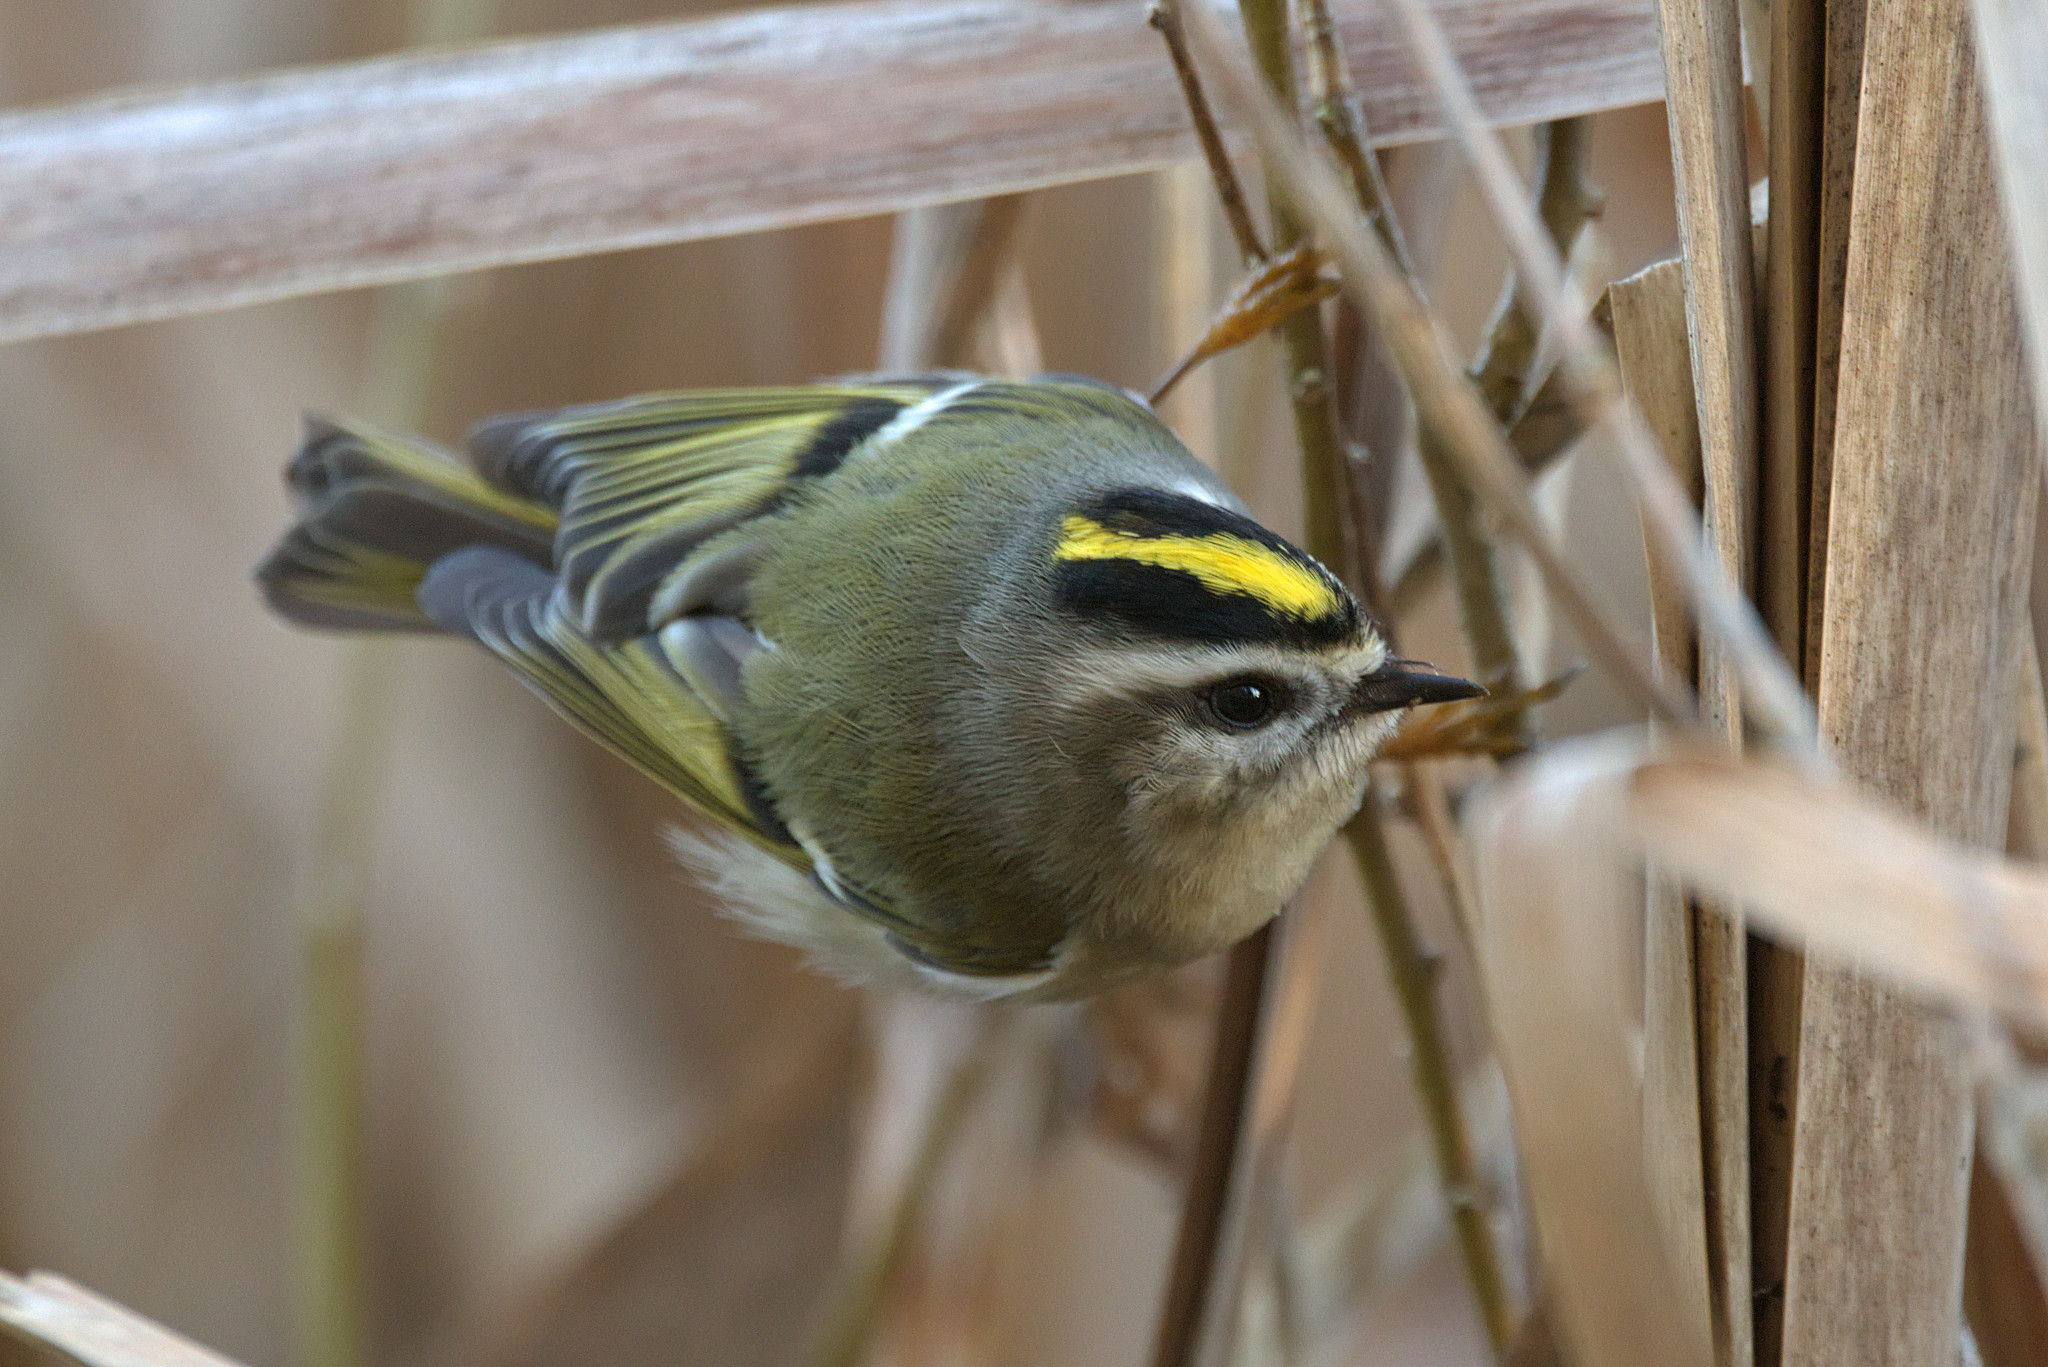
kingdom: Animalia
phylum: Chordata
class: Aves
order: Passeriformes
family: Regulidae
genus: Regulus
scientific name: Regulus satrapa
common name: Golden-crowned kinglet
